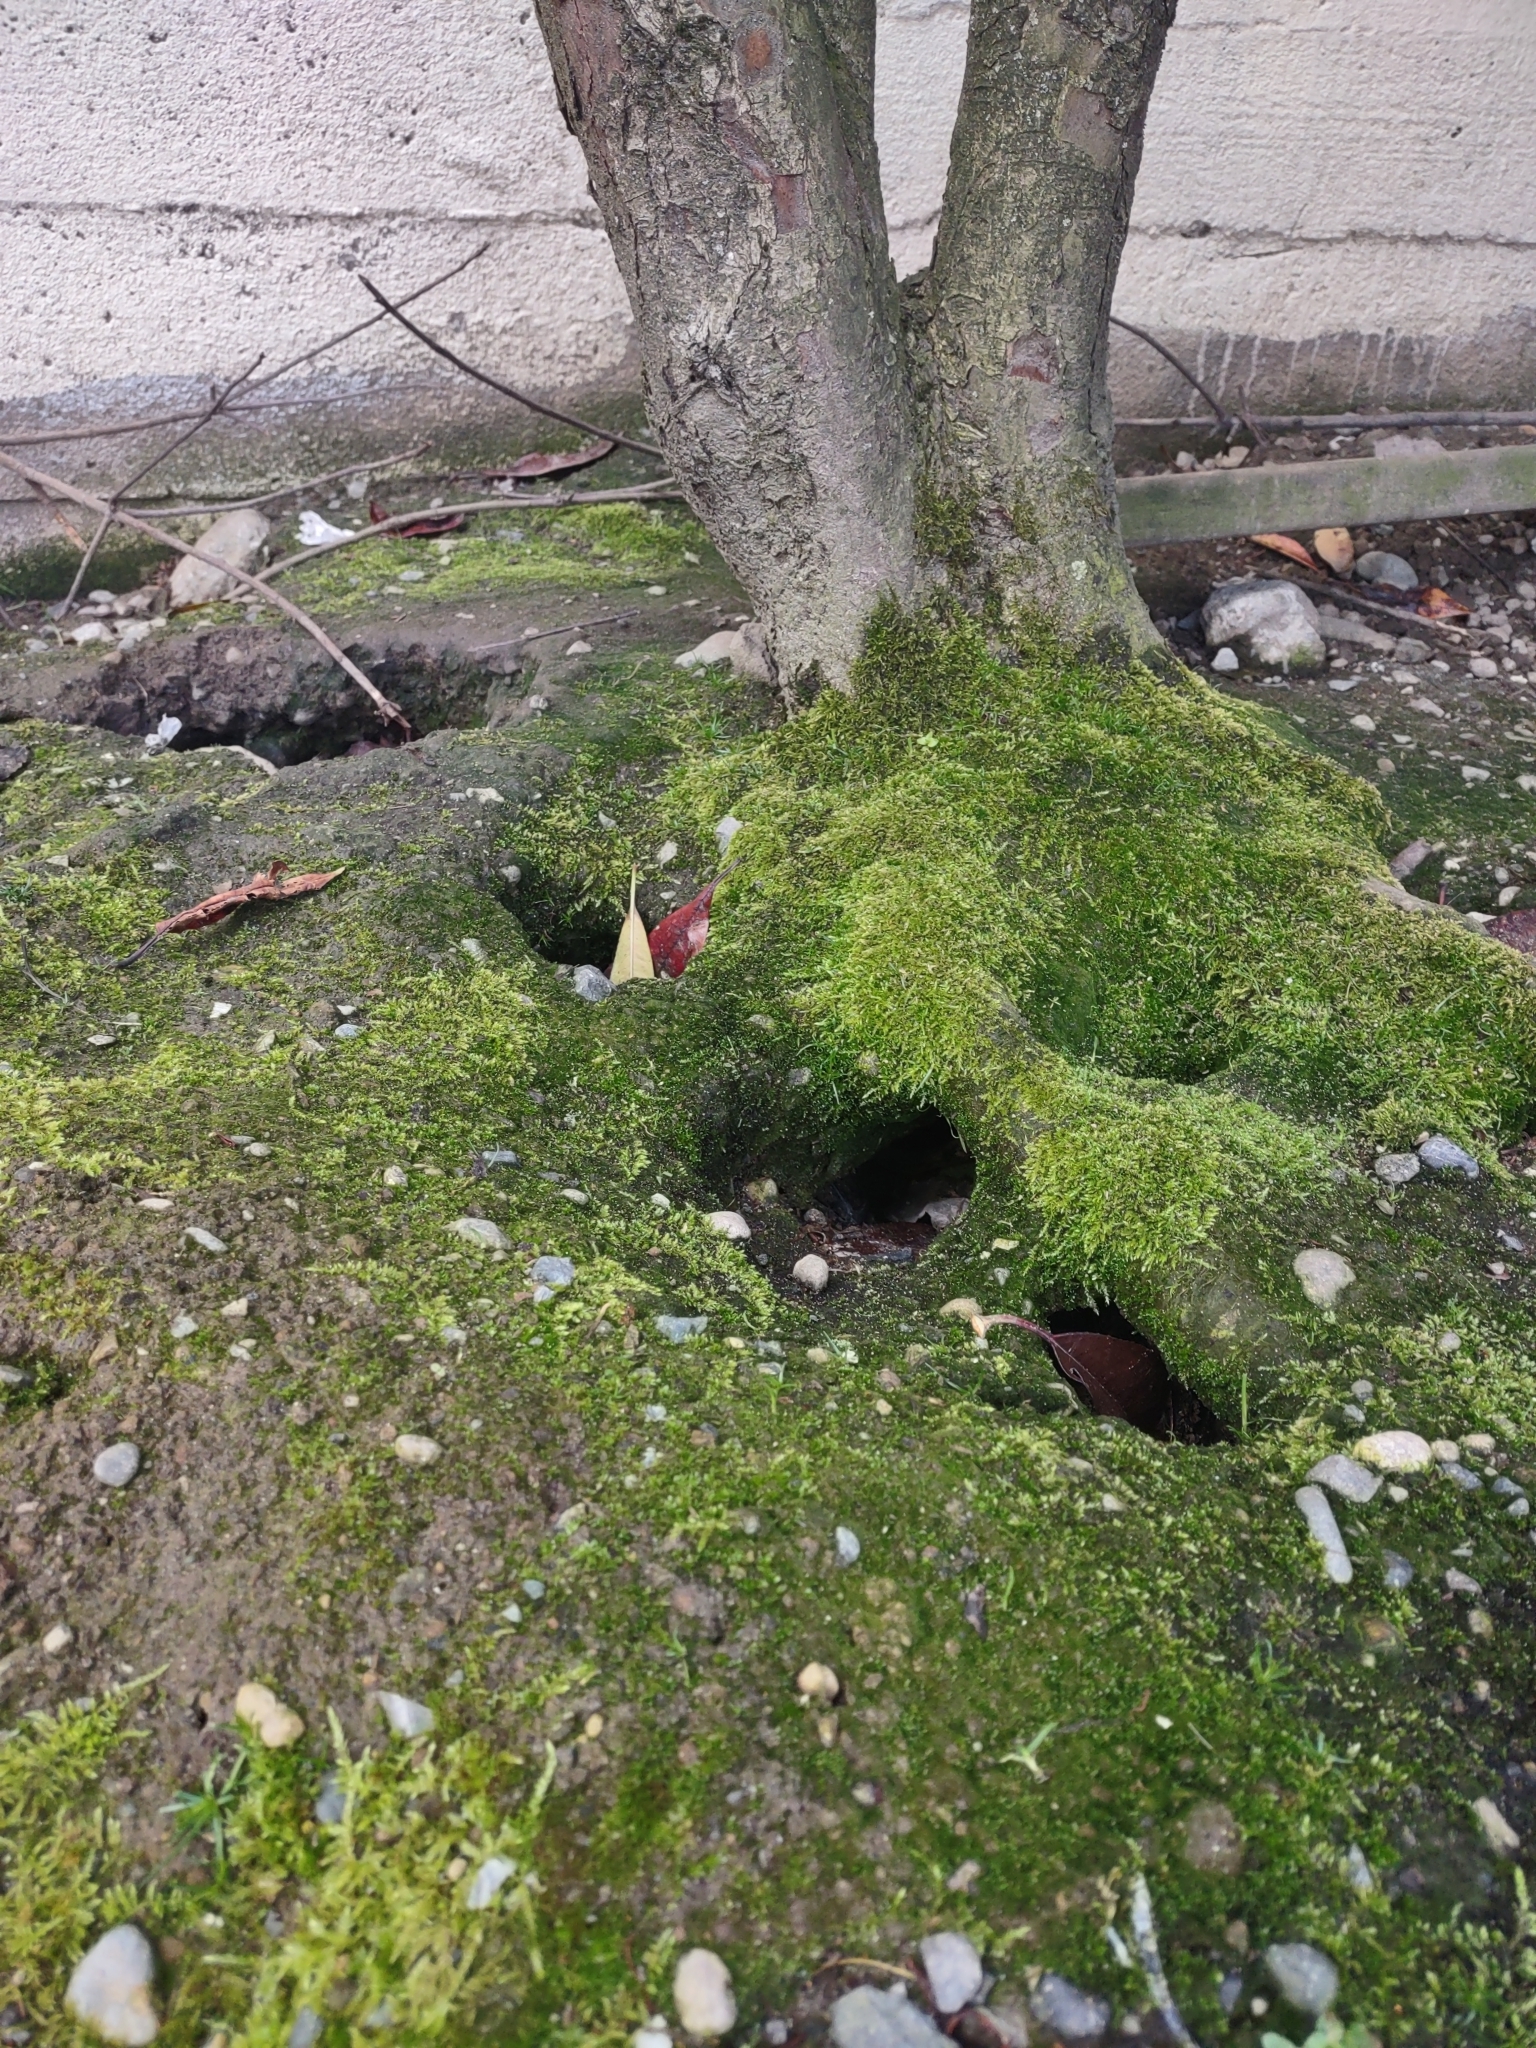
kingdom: Animalia
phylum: Chordata
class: Mammalia
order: Rodentia
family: Muridae
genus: Rattus
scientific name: Rattus norvegicus
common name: Brown rat
